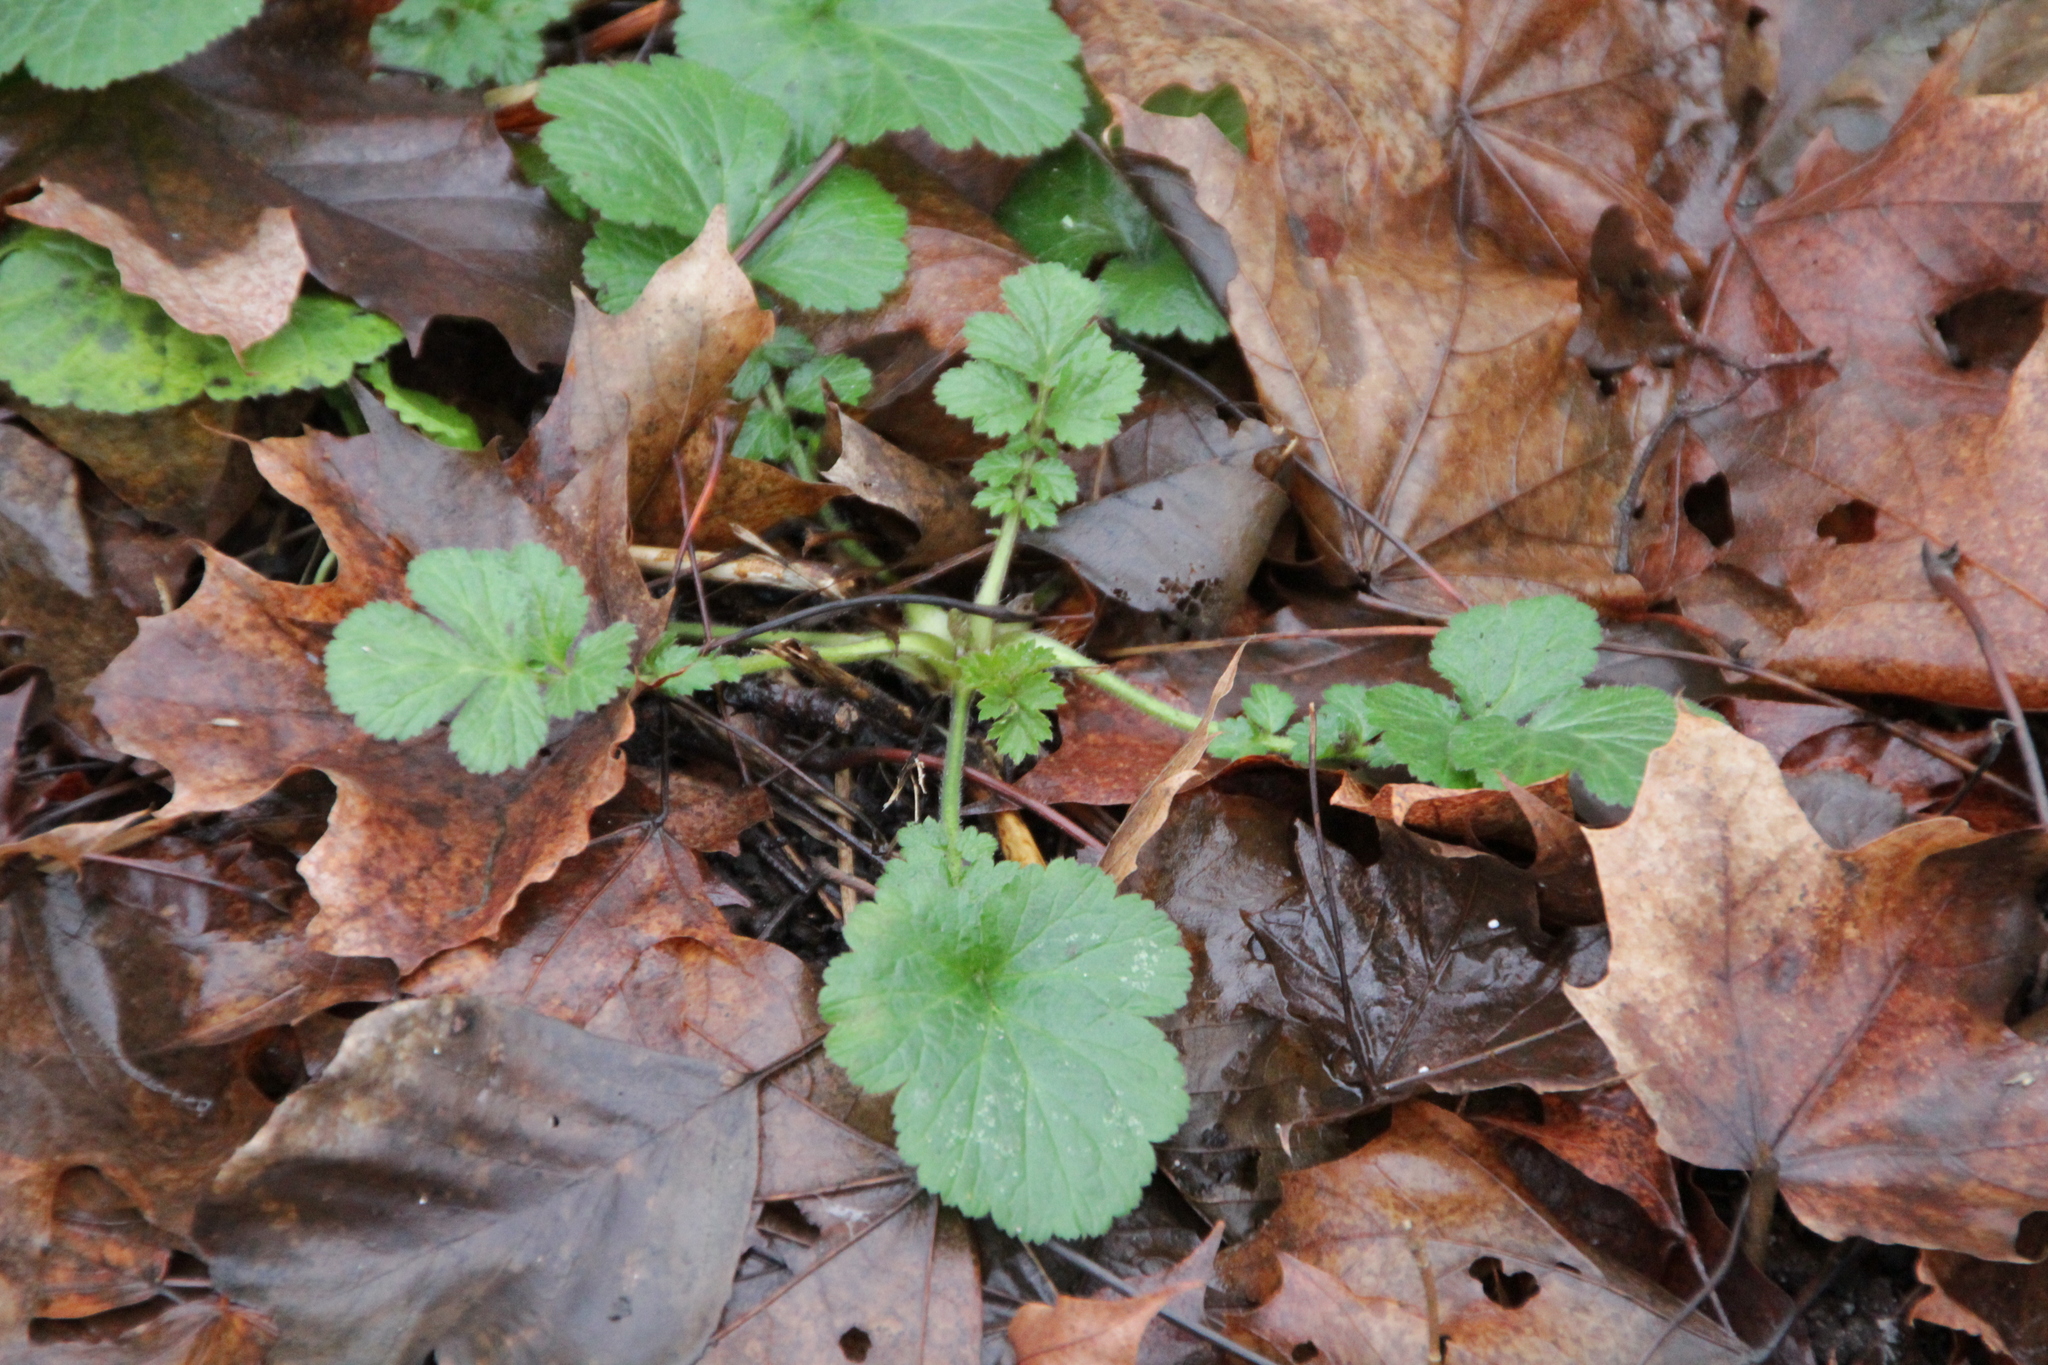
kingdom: Plantae
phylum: Tracheophyta
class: Magnoliopsida
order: Rosales
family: Rosaceae
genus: Geum
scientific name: Geum urbanum
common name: Wood avens
